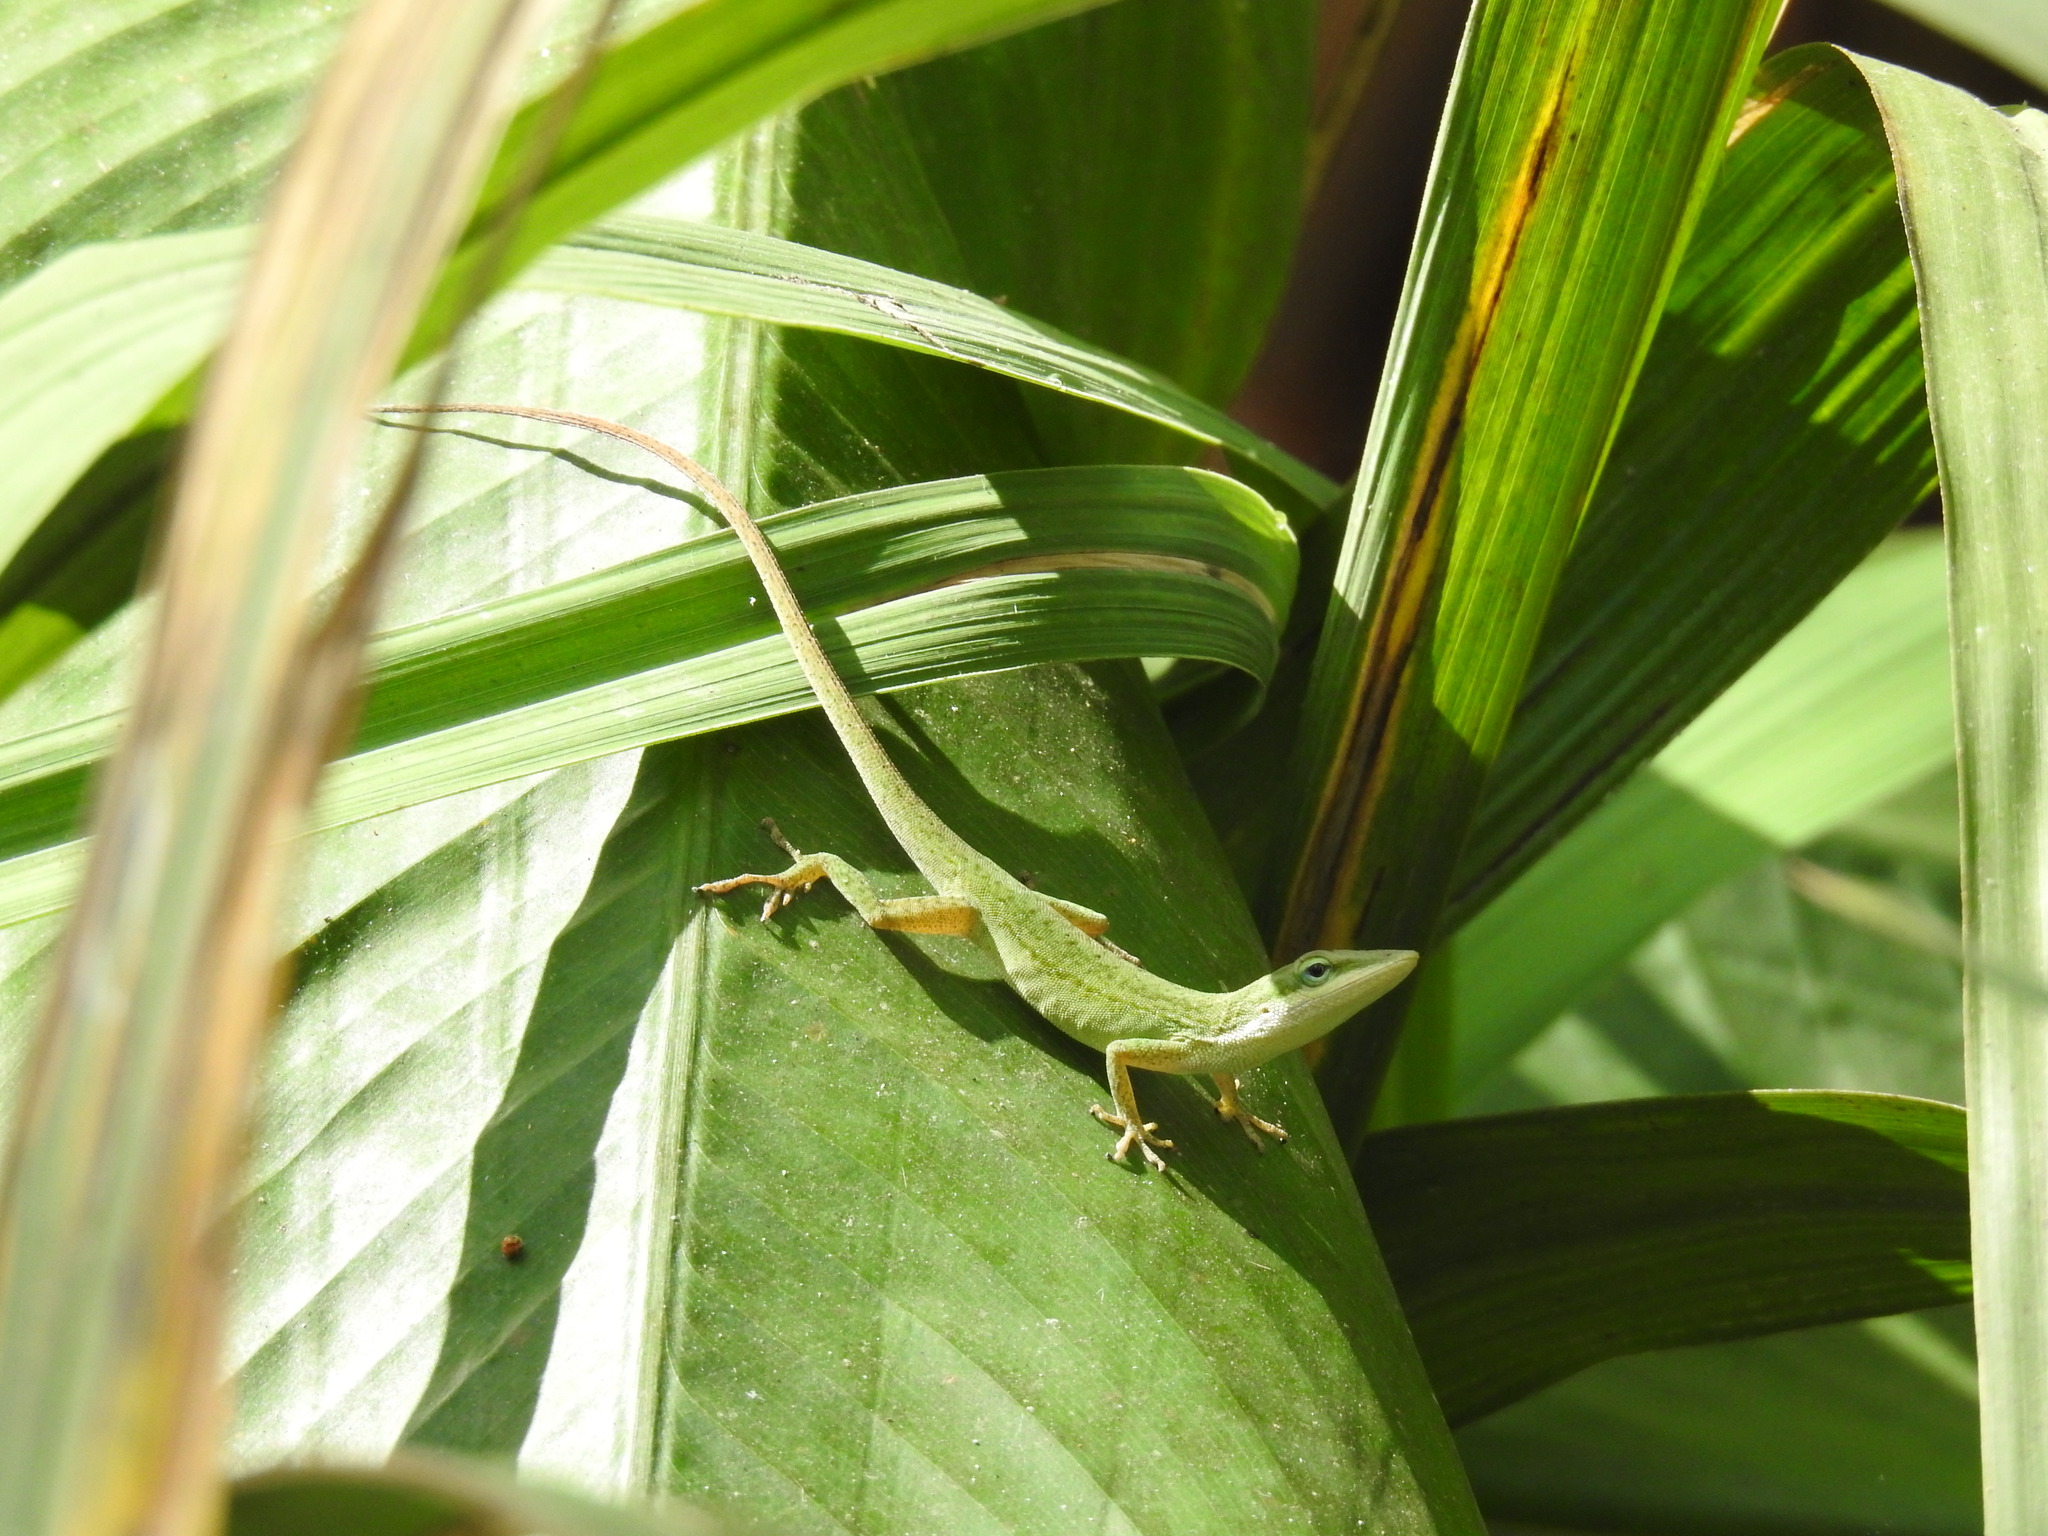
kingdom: Animalia
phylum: Chordata
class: Squamata
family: Dactyloidae
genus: Anolis
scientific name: Anolis carolinensis
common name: Green anole
